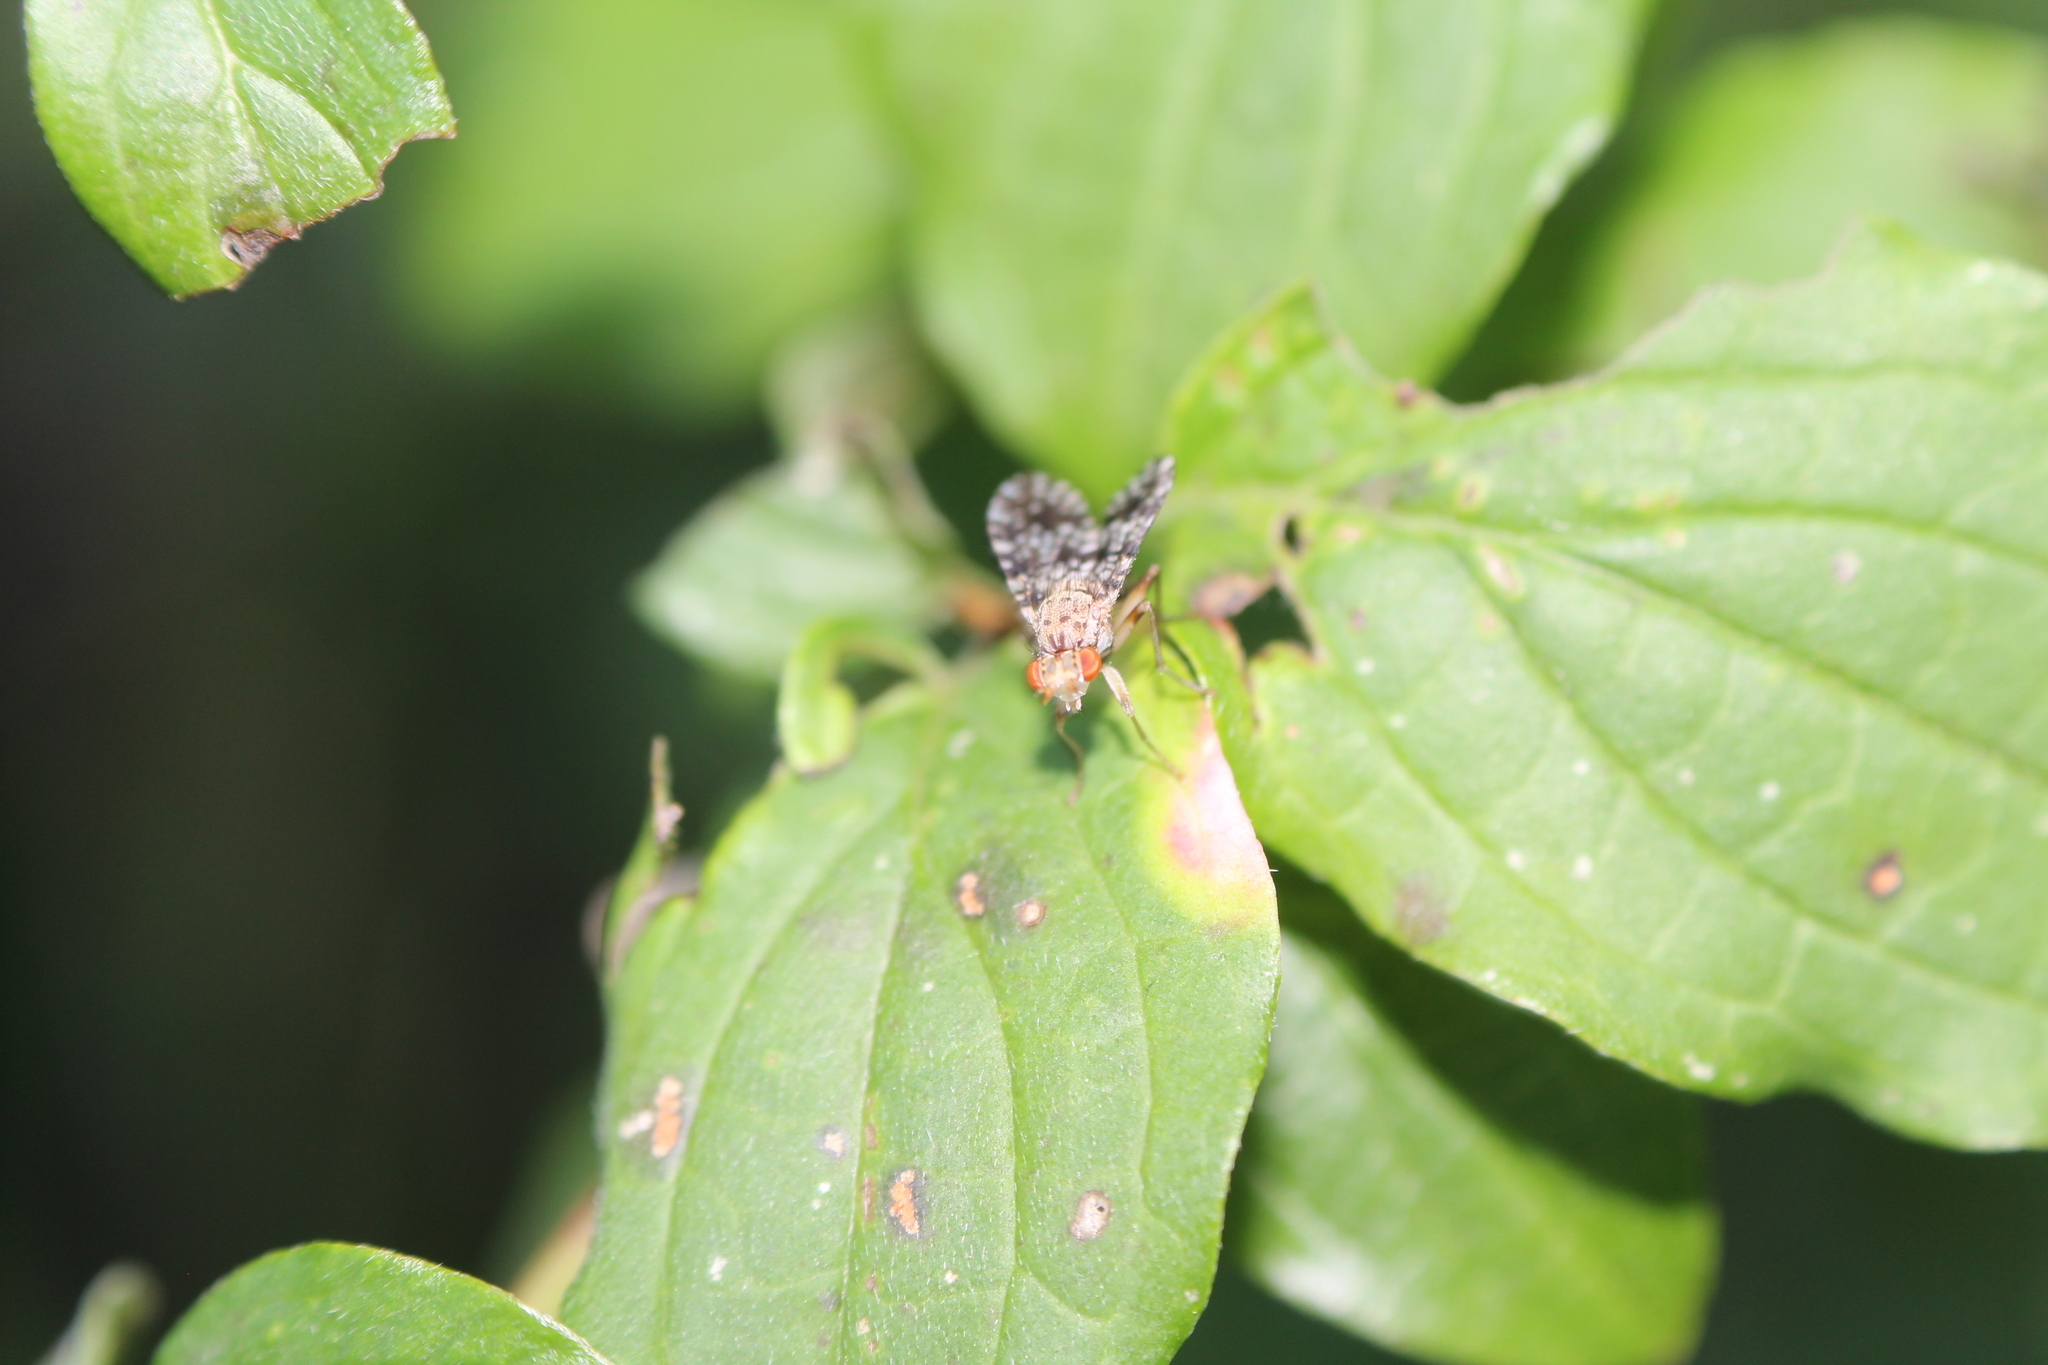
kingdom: Animalia
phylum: Arthropoda
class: Insecta
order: Diptera
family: Sciomyzidae
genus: Trypetoptera
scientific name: Trypetoptera punctulata
